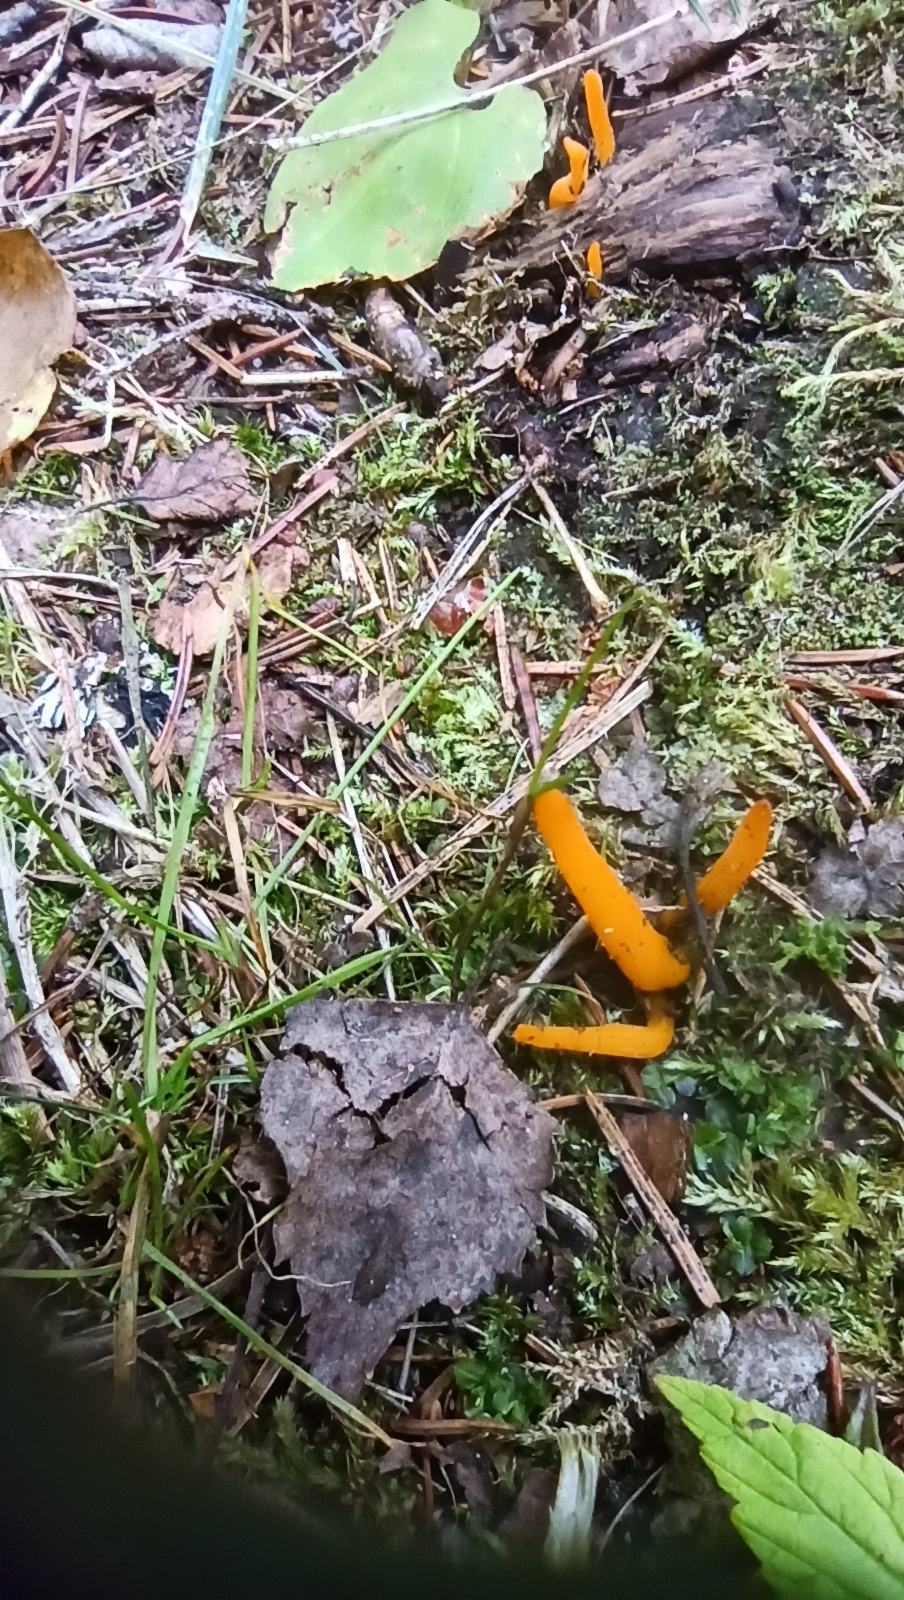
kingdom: Fungi
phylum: Basidiomycota
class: Dacrymycetes
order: Dacrymycetales
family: Dacrymycetaceae
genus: Calocera
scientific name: Calocera viscosa
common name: Yellow stagshorn
